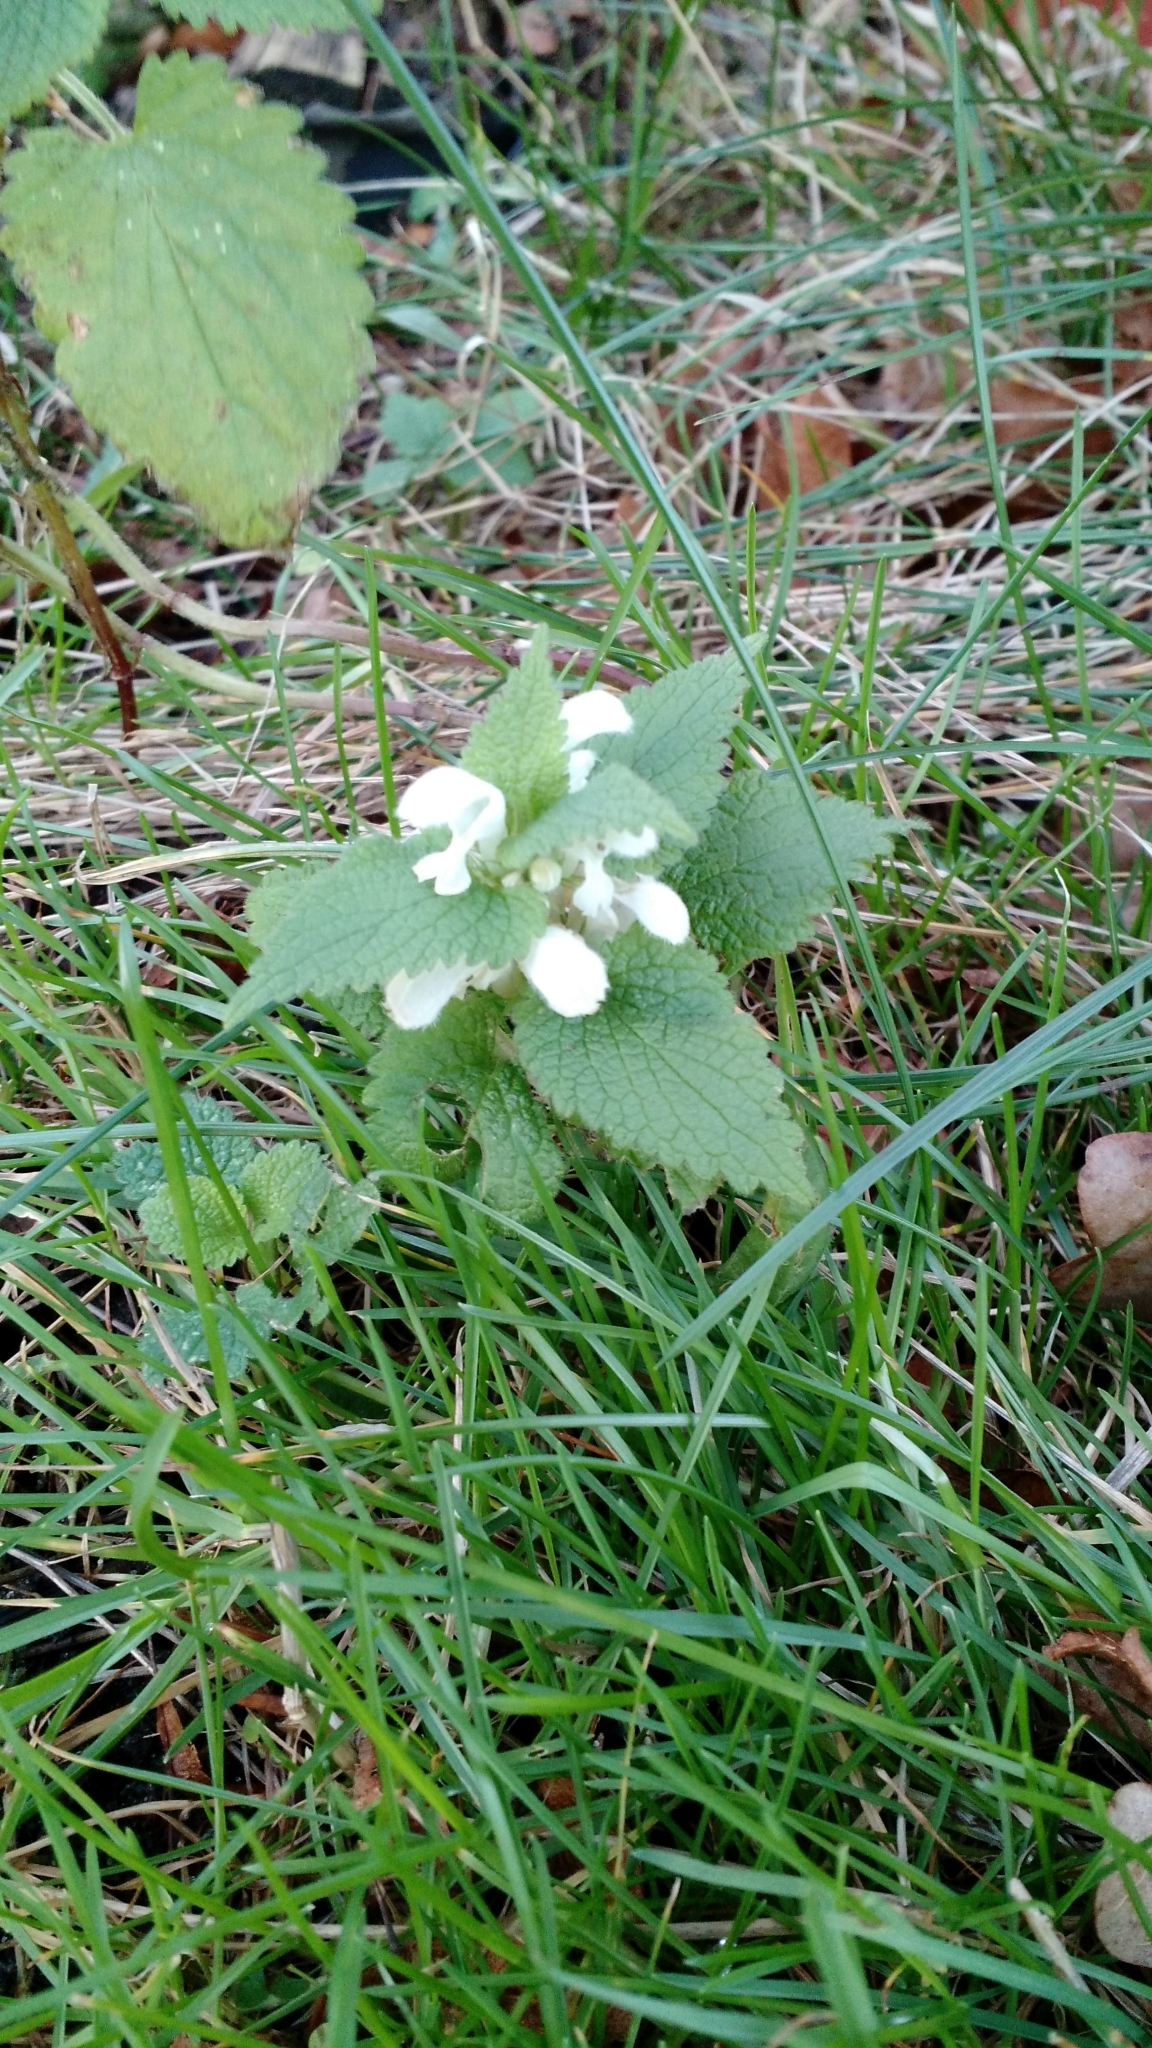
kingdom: Plantae
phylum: Tracheophyta
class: Magnoliopsida
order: Lamiales
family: Lamiaceae
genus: Lamium
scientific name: Lamium album
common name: White dead-nettle
